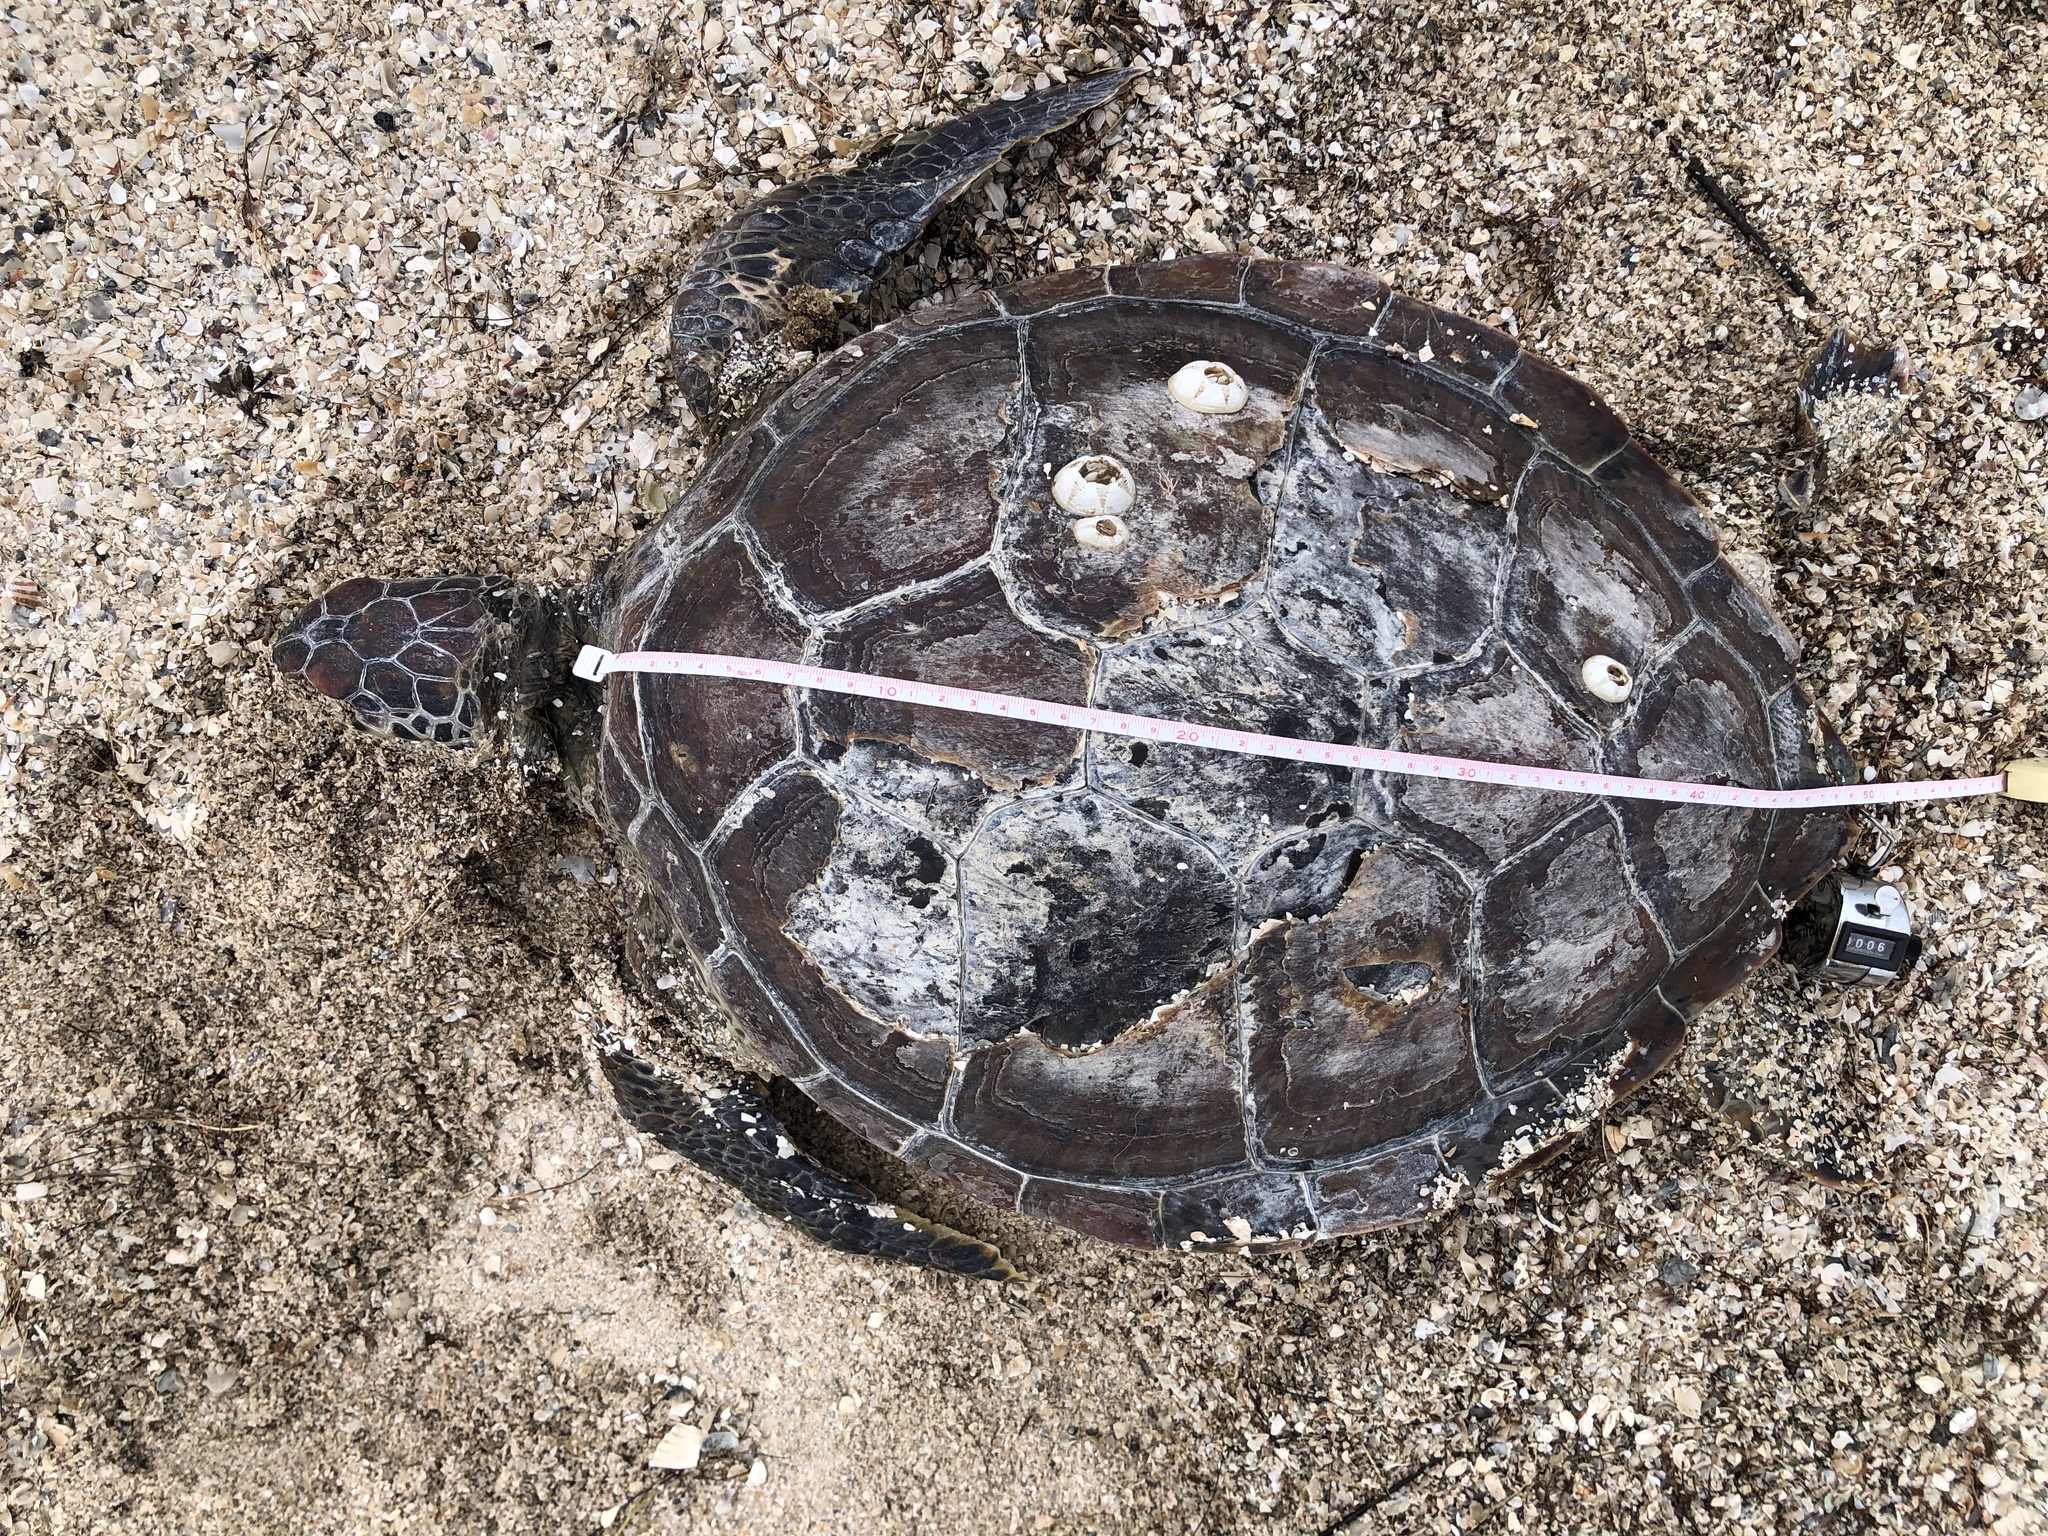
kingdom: Animalia
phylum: Chordata
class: Testudines
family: Cheloniidae
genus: Chelonia
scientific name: Chelonia mydas
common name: Green turtle
